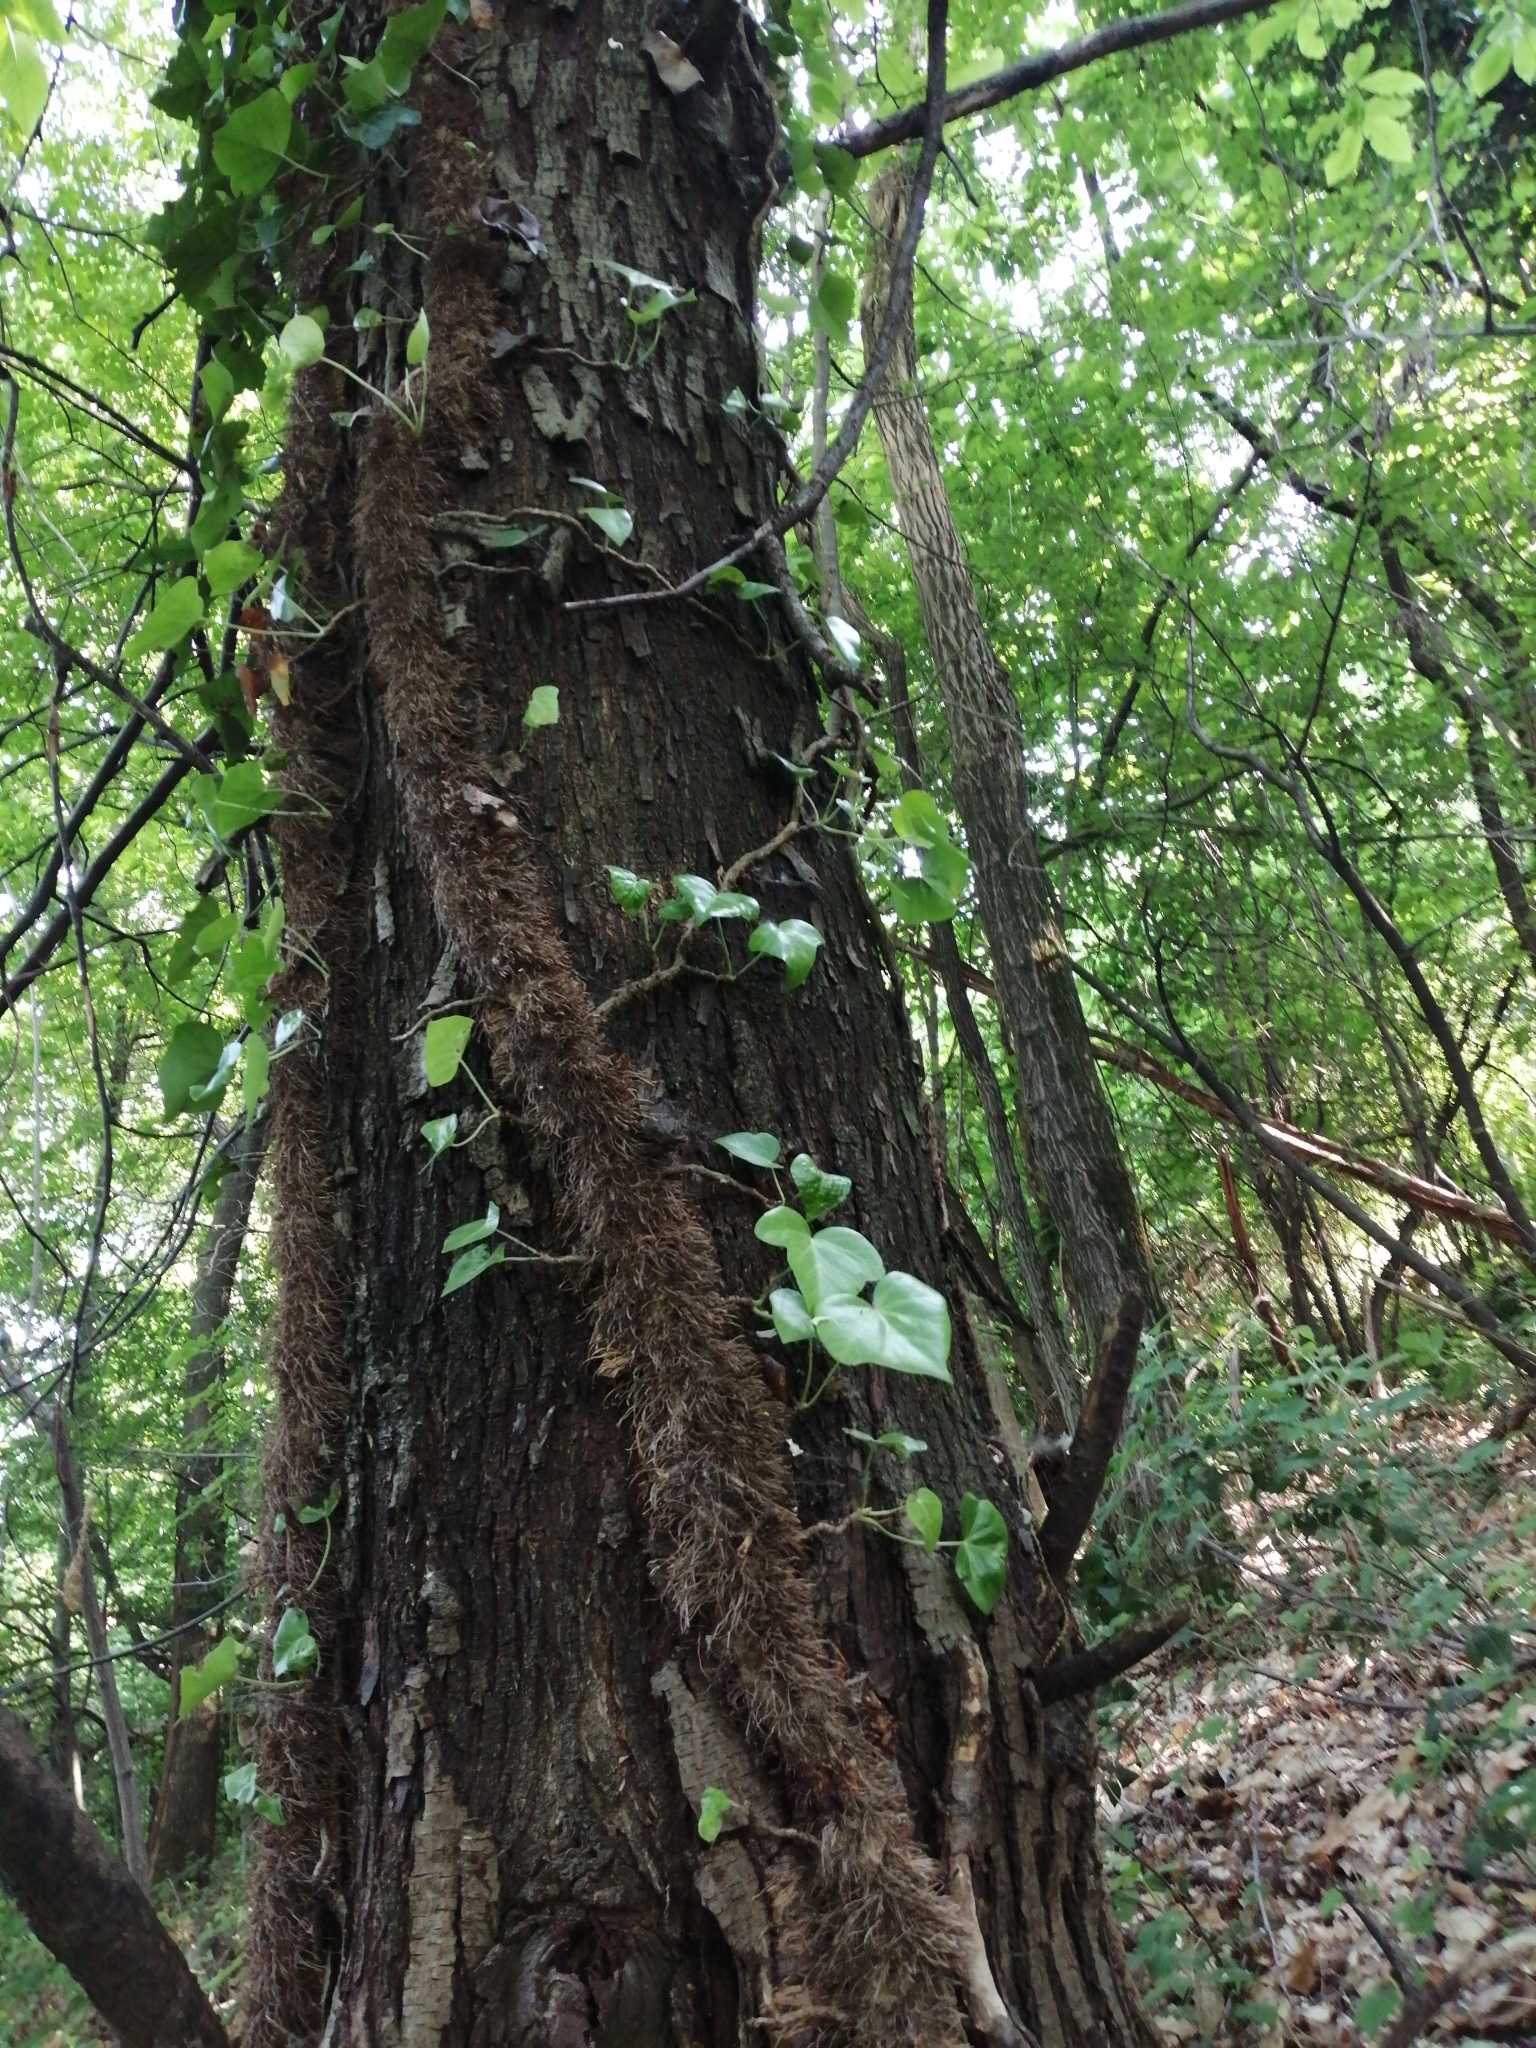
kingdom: Plantae
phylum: Tracheophyta
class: Magnoliopsida
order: Apiales
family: Araliaceae
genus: Hedera
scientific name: Hedera helix
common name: Ivy
